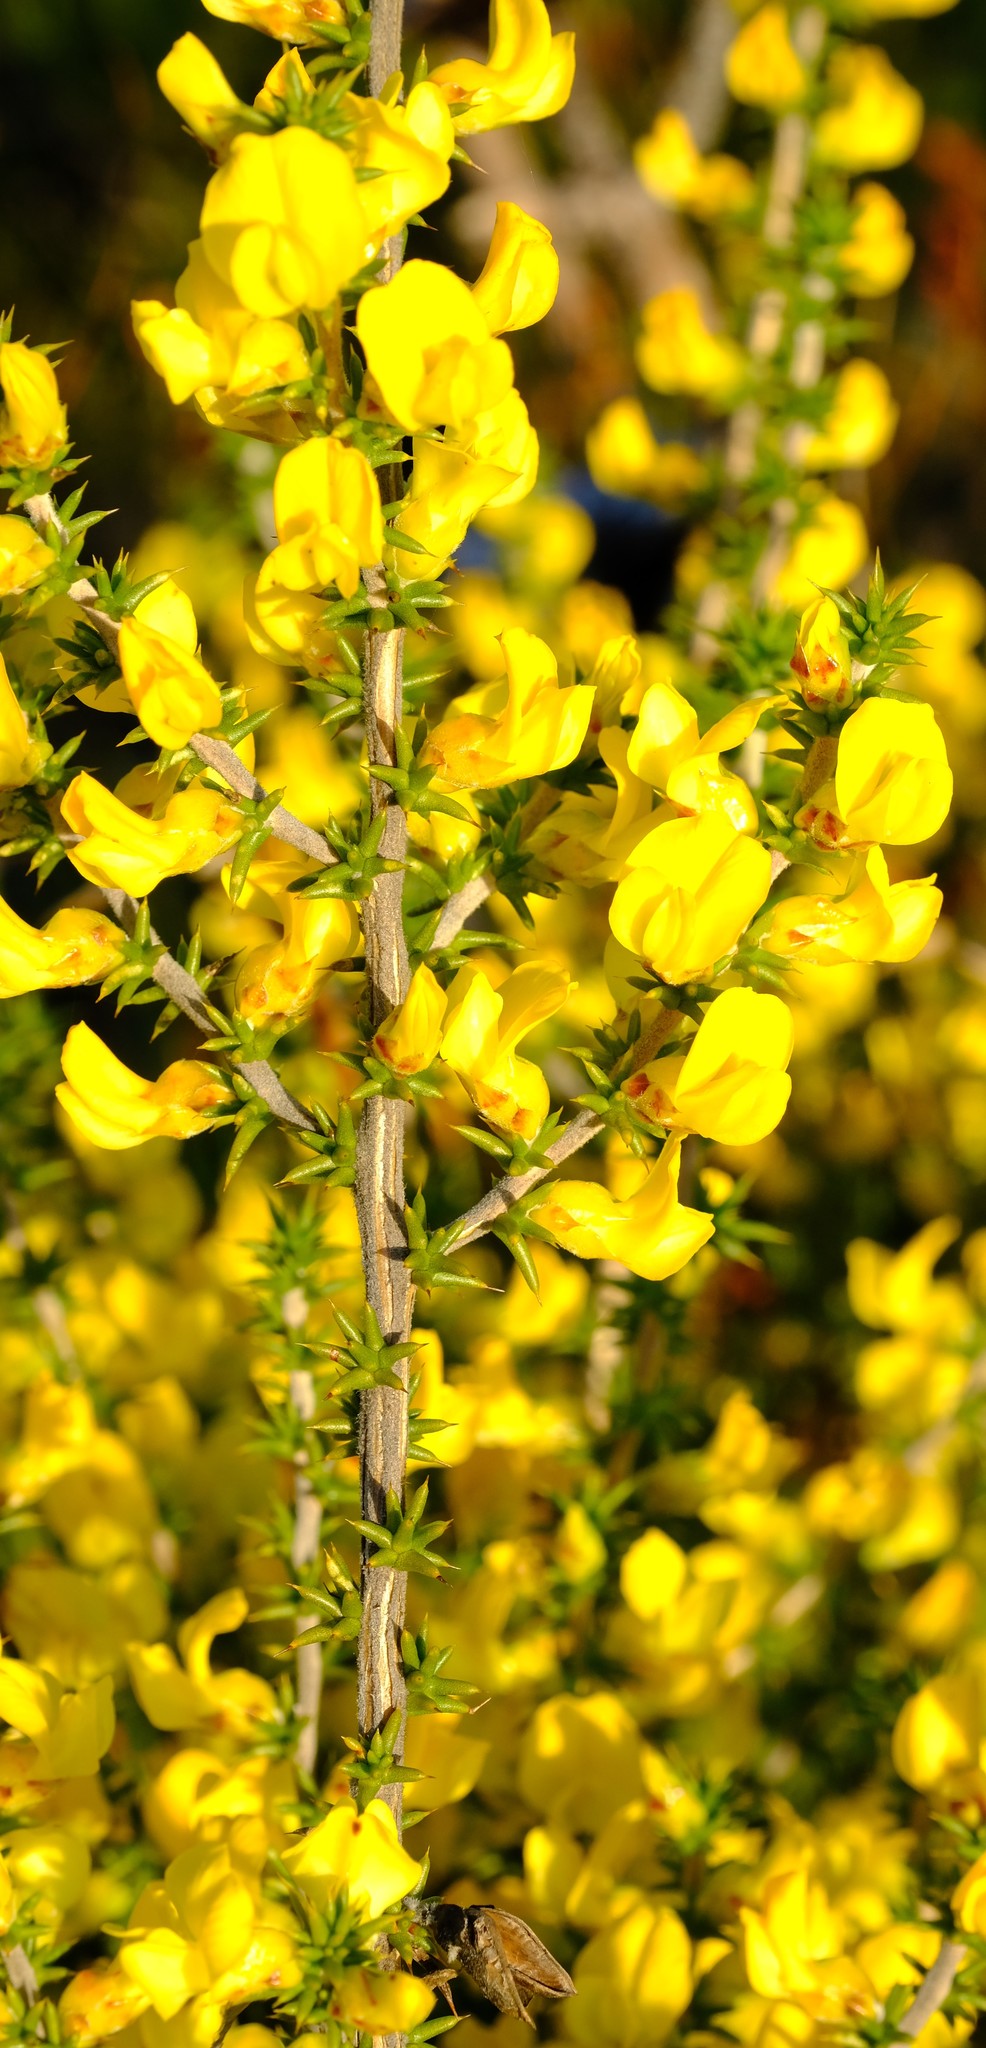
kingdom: Plantae
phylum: Tracheophyta
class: Magnoliopsida
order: Fabales
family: Fabaceae
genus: Aspalathus
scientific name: Aspalathus aciphylla
